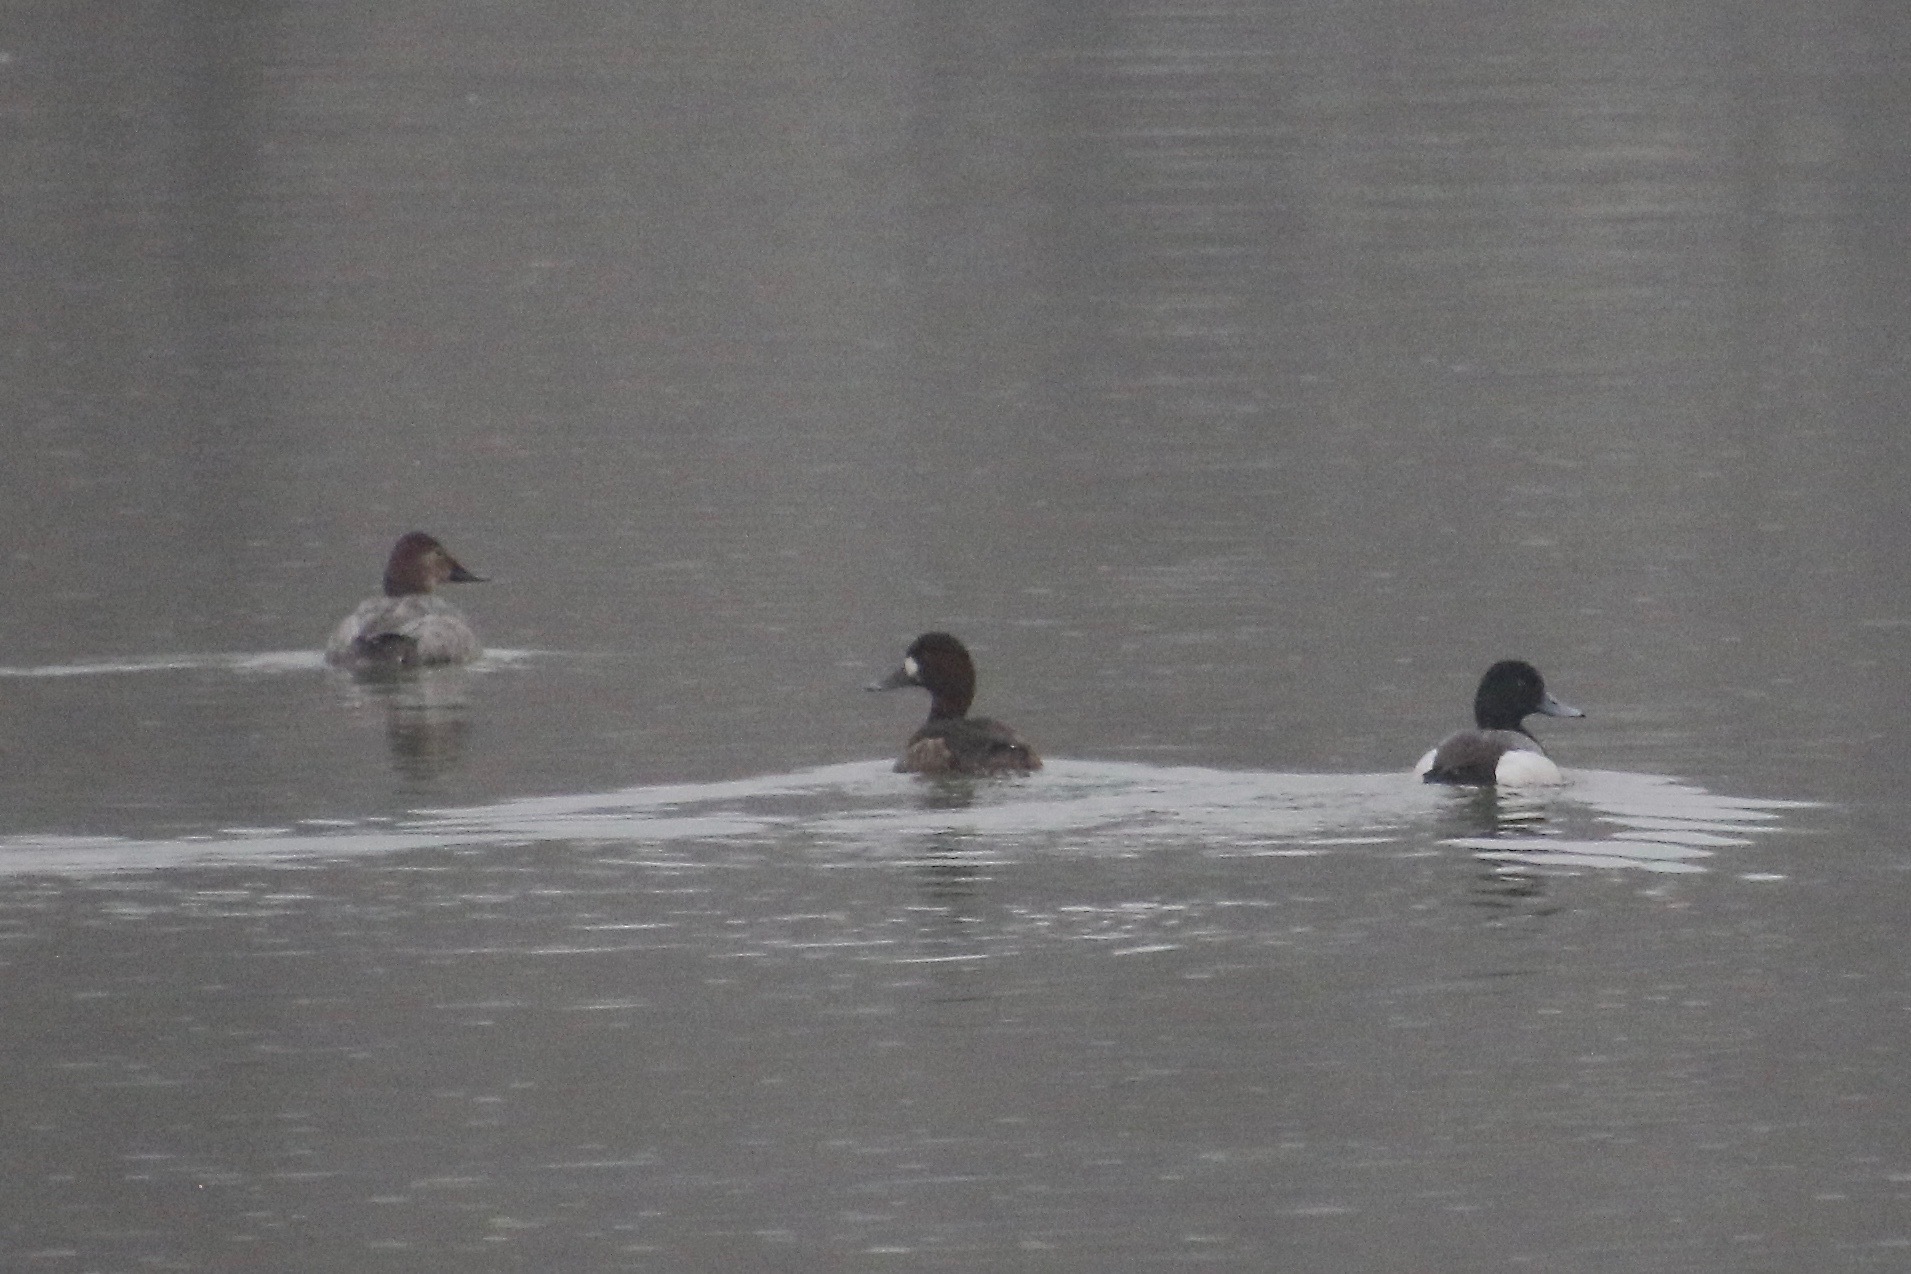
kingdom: Animalia
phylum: Chordata
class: Aves
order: Anseriformes
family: Anatidae
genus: Aythya
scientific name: Aythya marila
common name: Greater scaup
